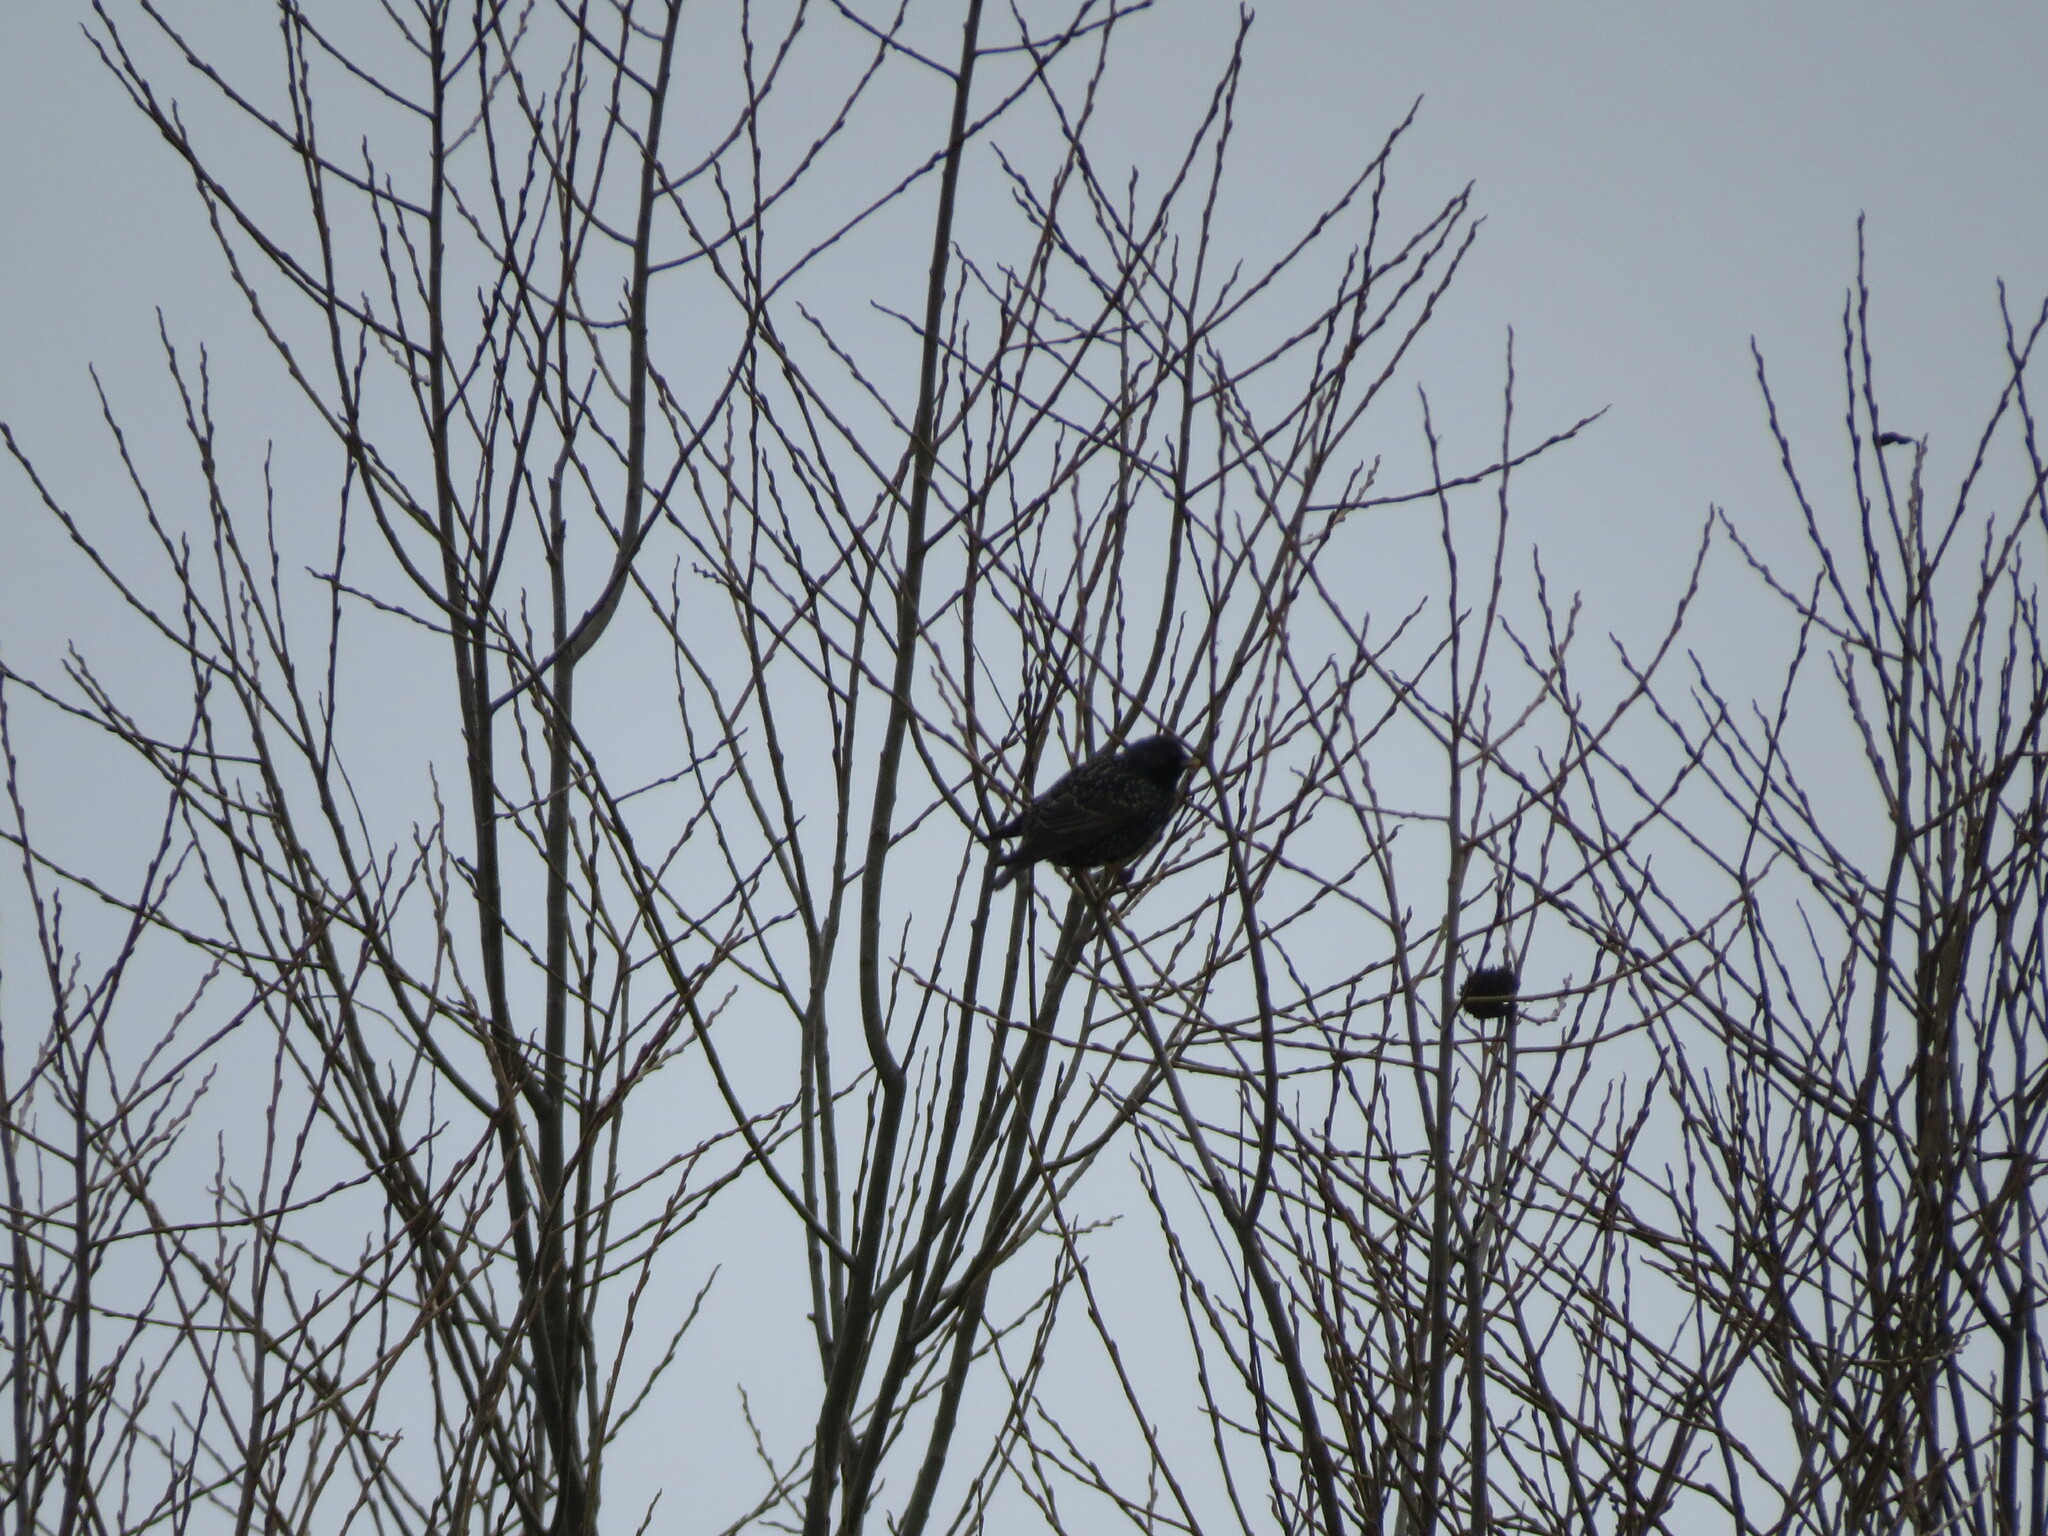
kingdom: Animalia
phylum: Chordata
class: Aves
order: Passeriformes
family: Sturnidae
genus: Sturnus
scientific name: Sturnus vulgaris
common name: Common starling
